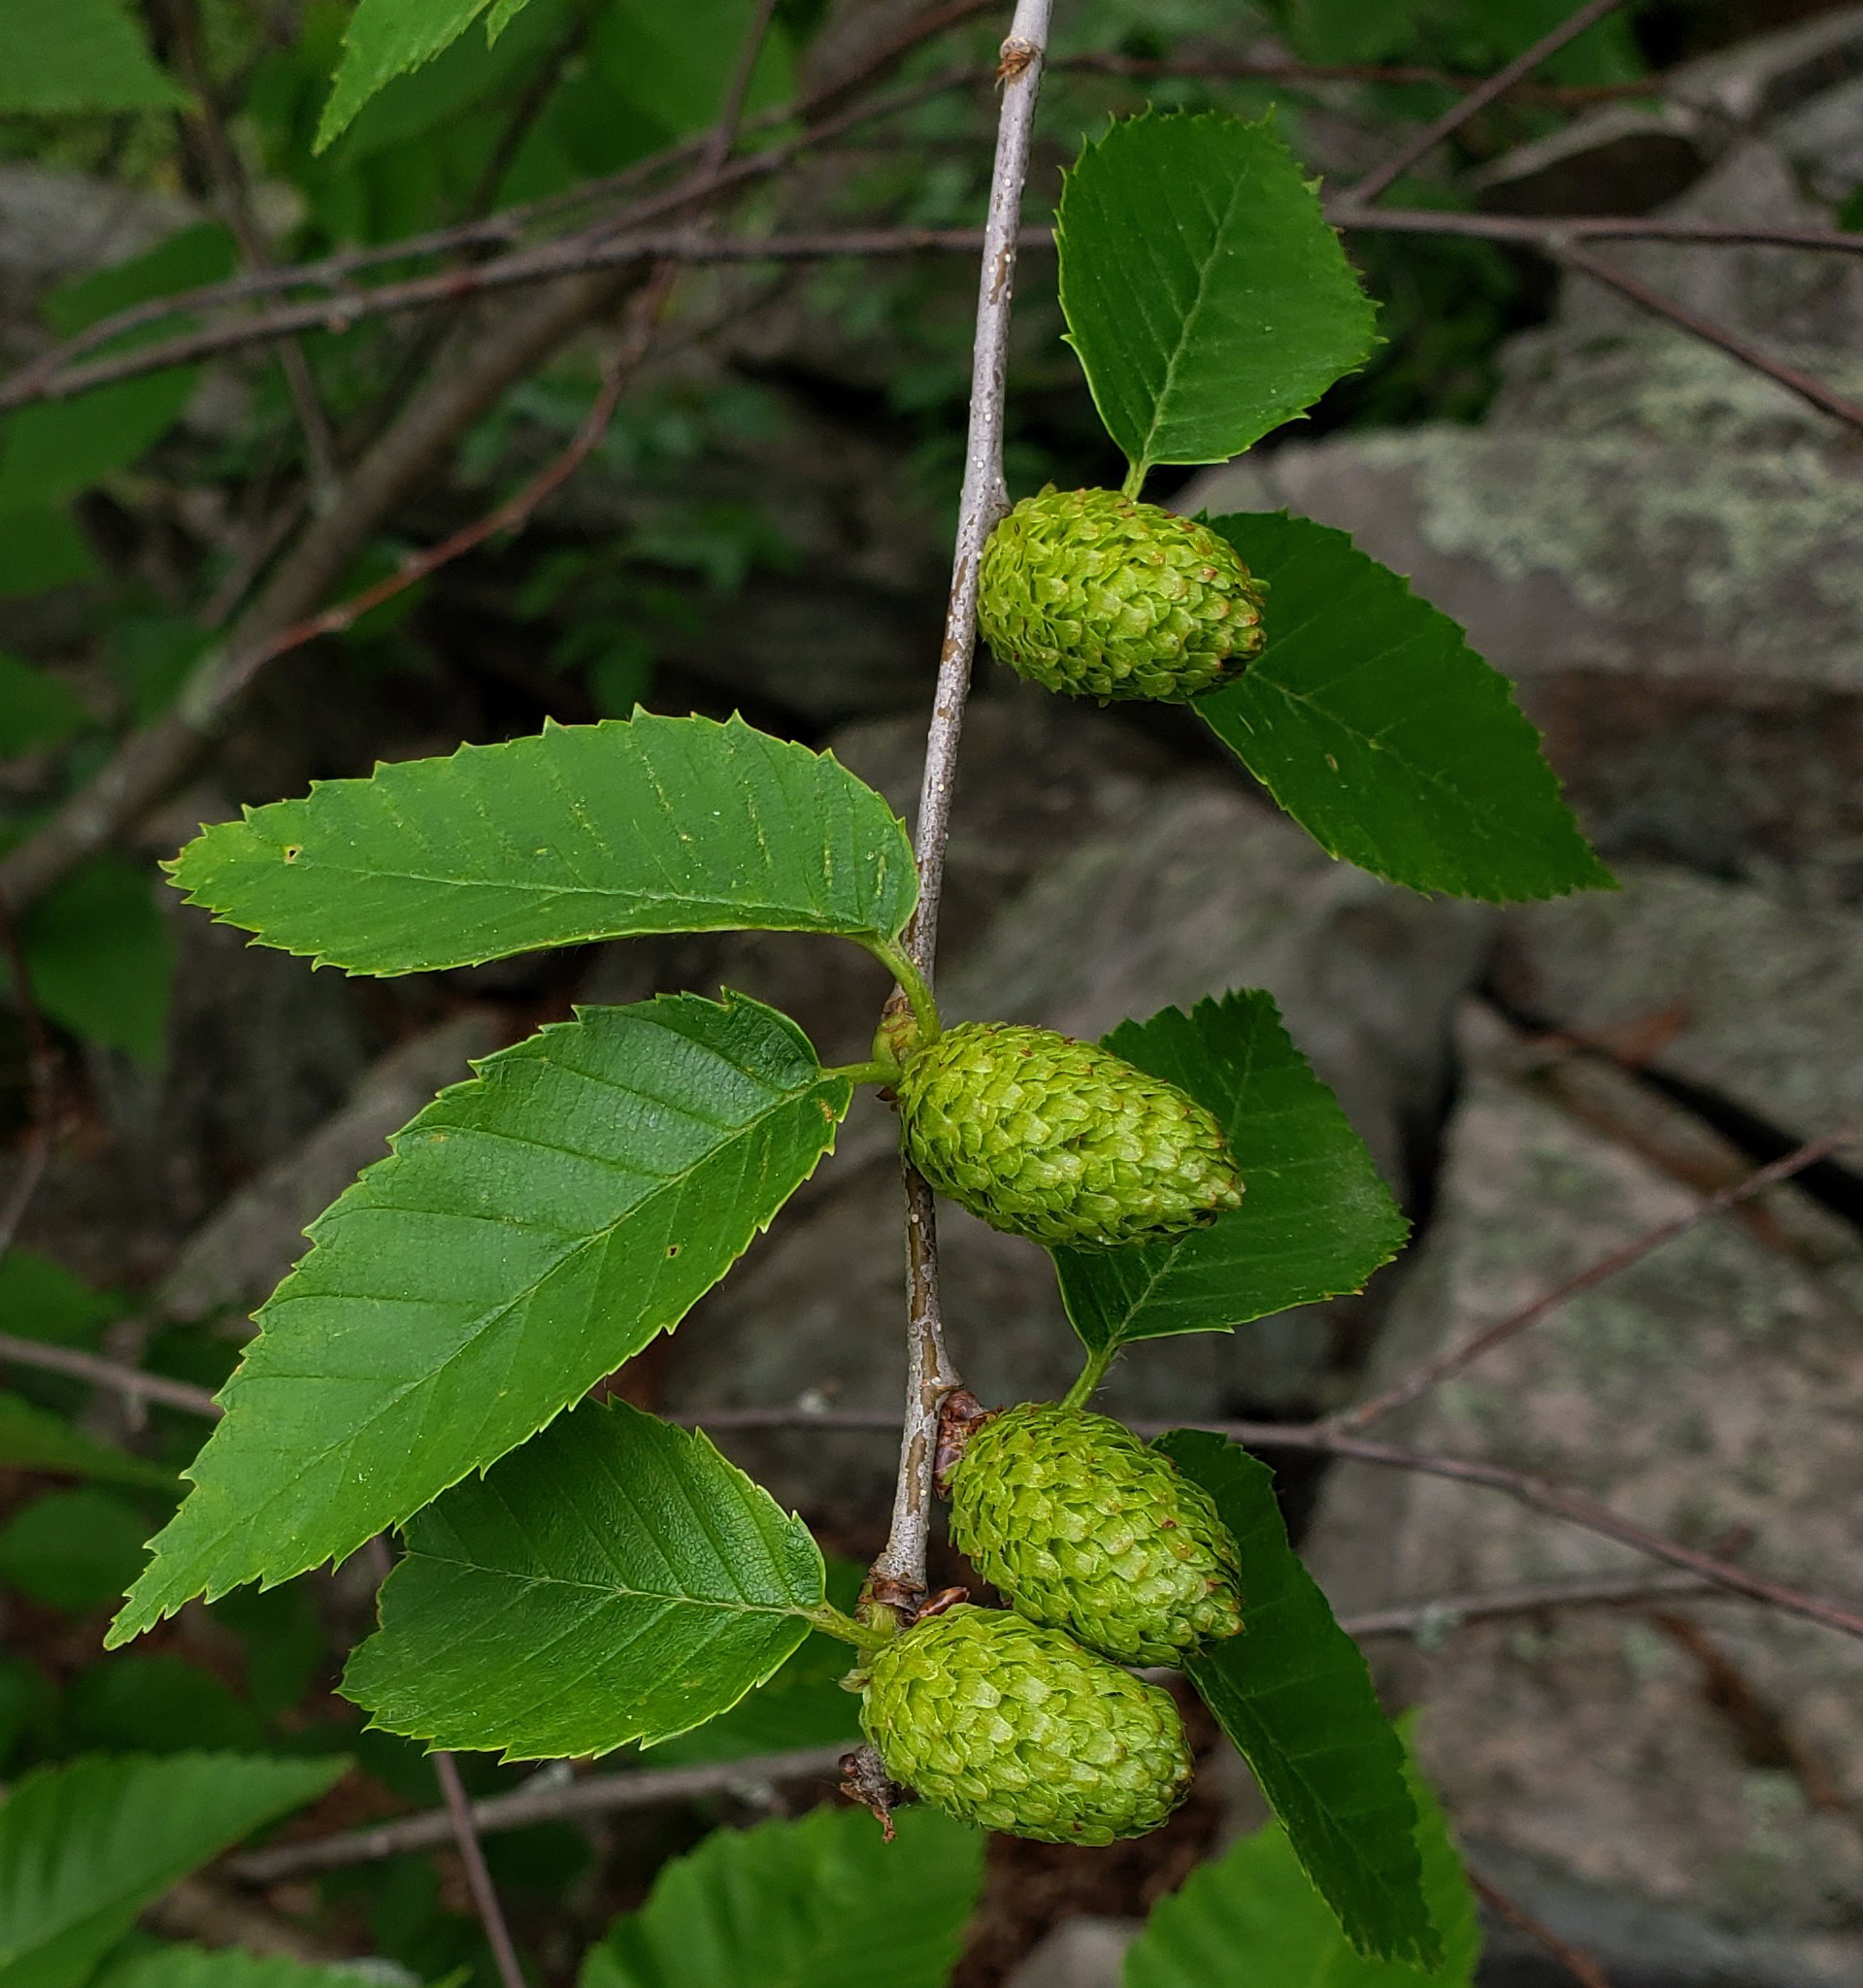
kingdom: Plantae
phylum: Tracheophyta
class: Magnoliopsida
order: Fagales
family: Betulaceae
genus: Betula
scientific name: Betula alleghaniensis
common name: Yellow birch
